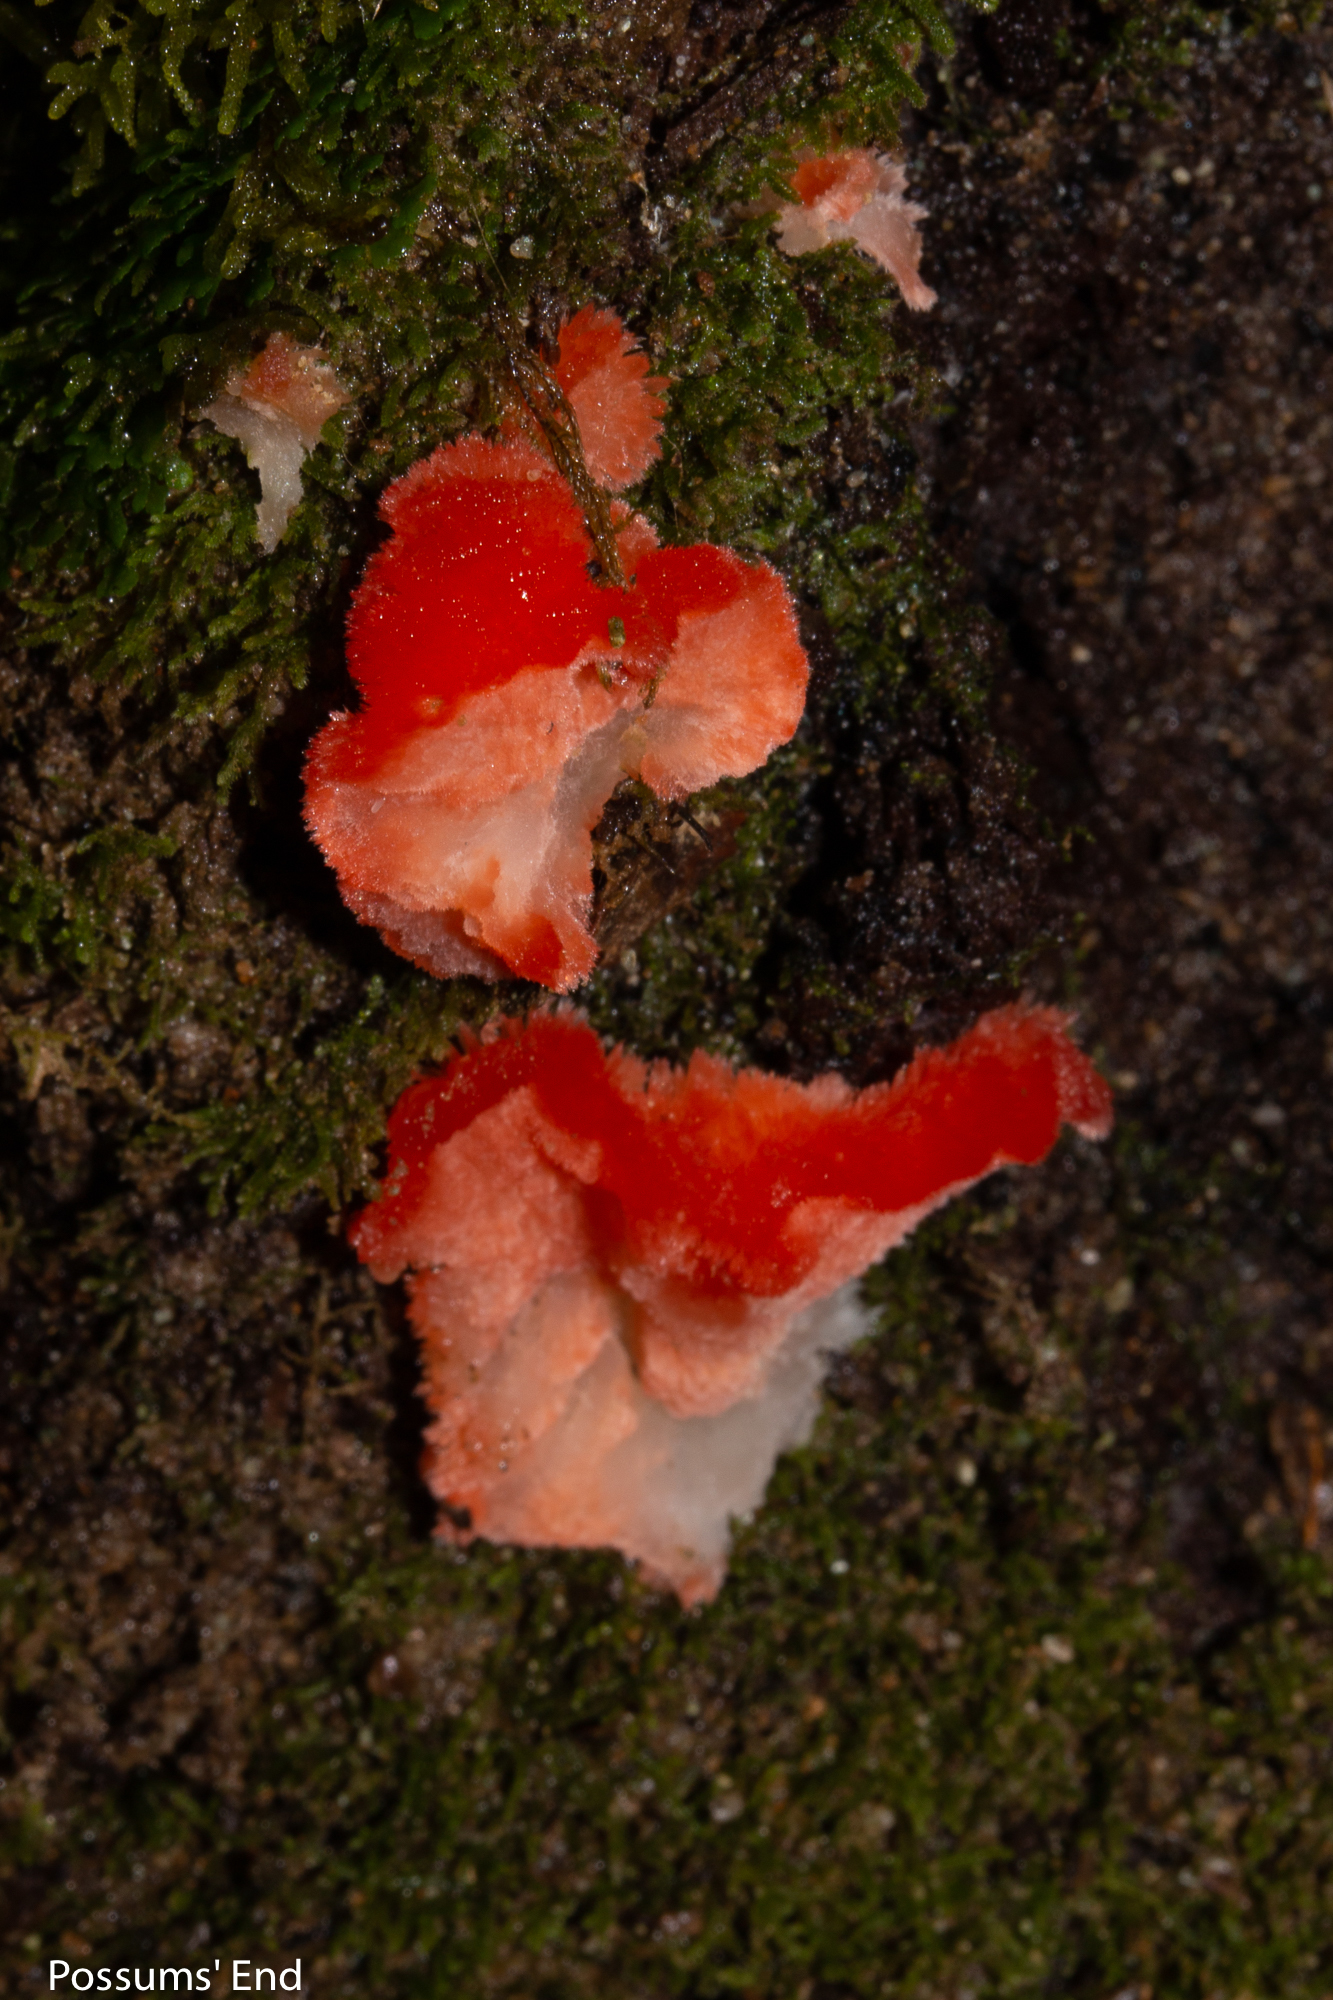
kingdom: Fungi
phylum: Basidiomycota
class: Agaricomycetes
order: Polyporales
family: Incrustoporiaceae
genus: Tyromyces
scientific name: Tyromyces pulcherrimus
